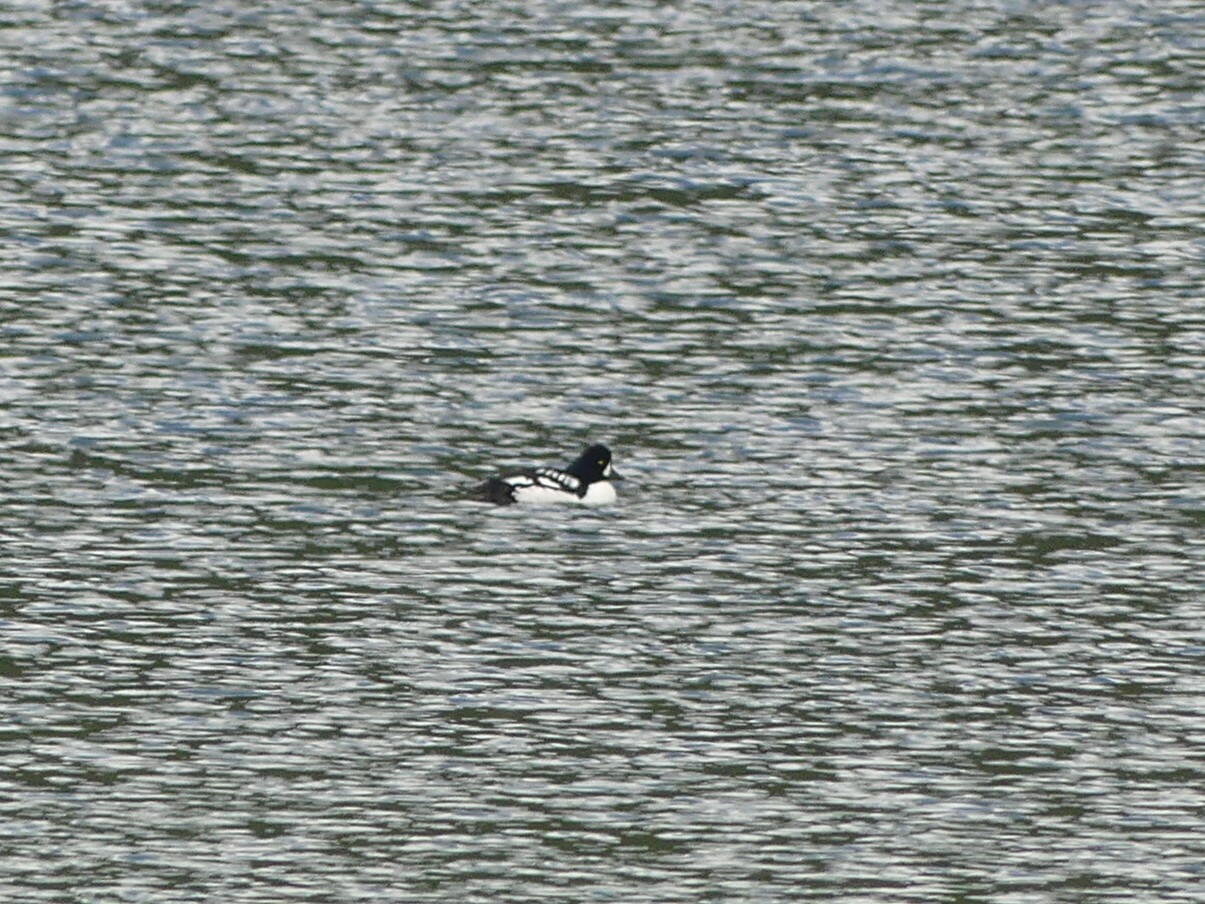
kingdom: Animalia
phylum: Chordata
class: Aves
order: Anseriformes
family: Anatidae
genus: Bucephala
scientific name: Bucephala islandica
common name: Barrow's goldeneye
